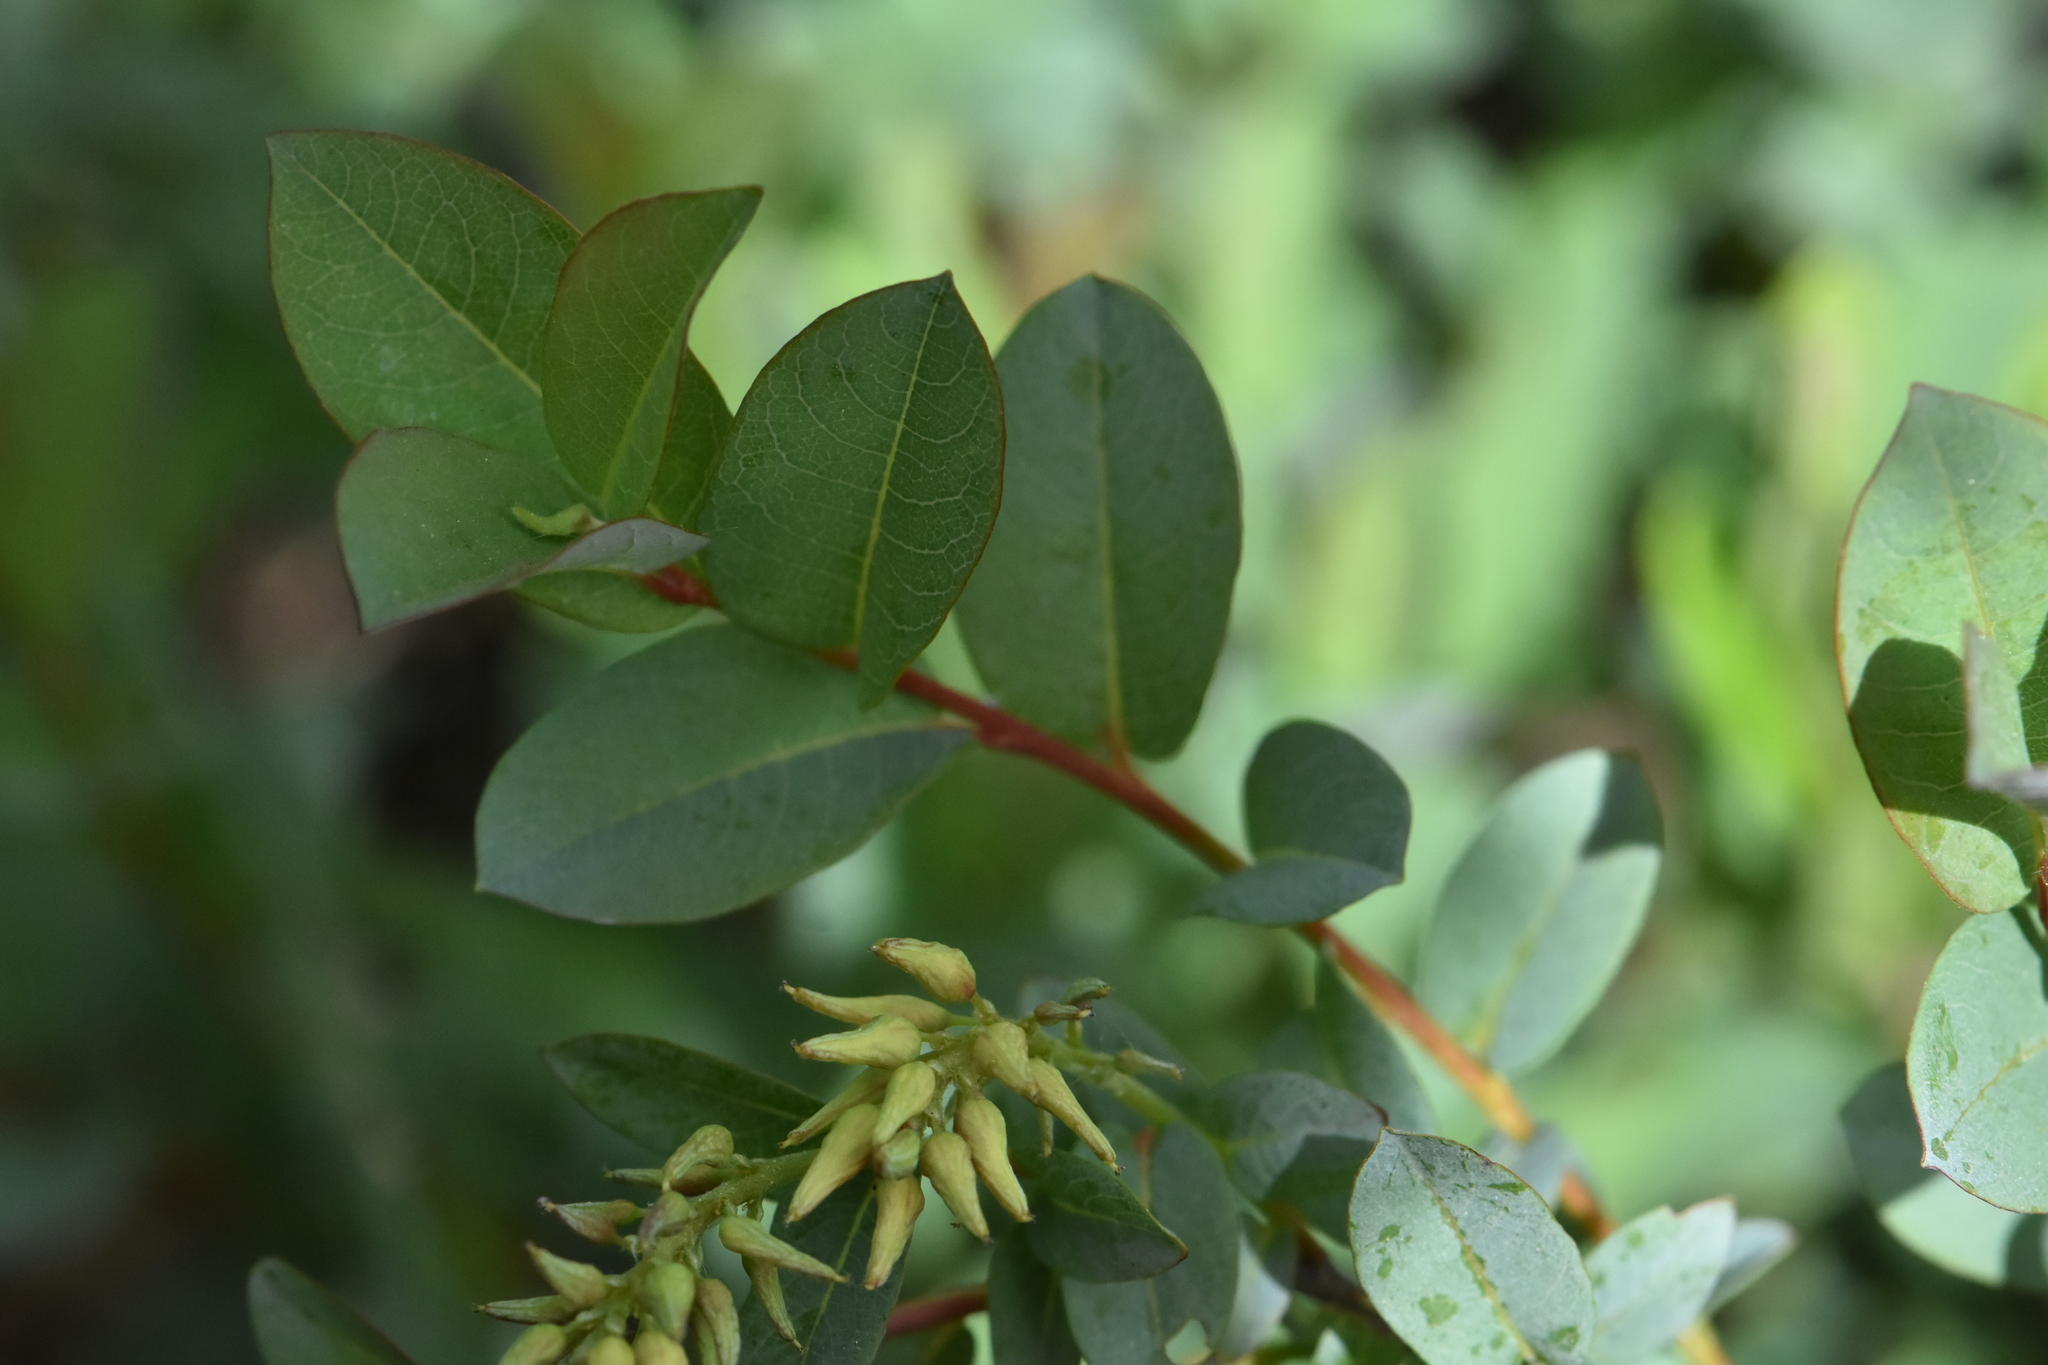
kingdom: Plantae
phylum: Tracheophyta
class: Magnoliopsida
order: Malpighiales
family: Salicaceae
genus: Salix
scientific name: Salix myrtilloides
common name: Myrtle-leaved willow
